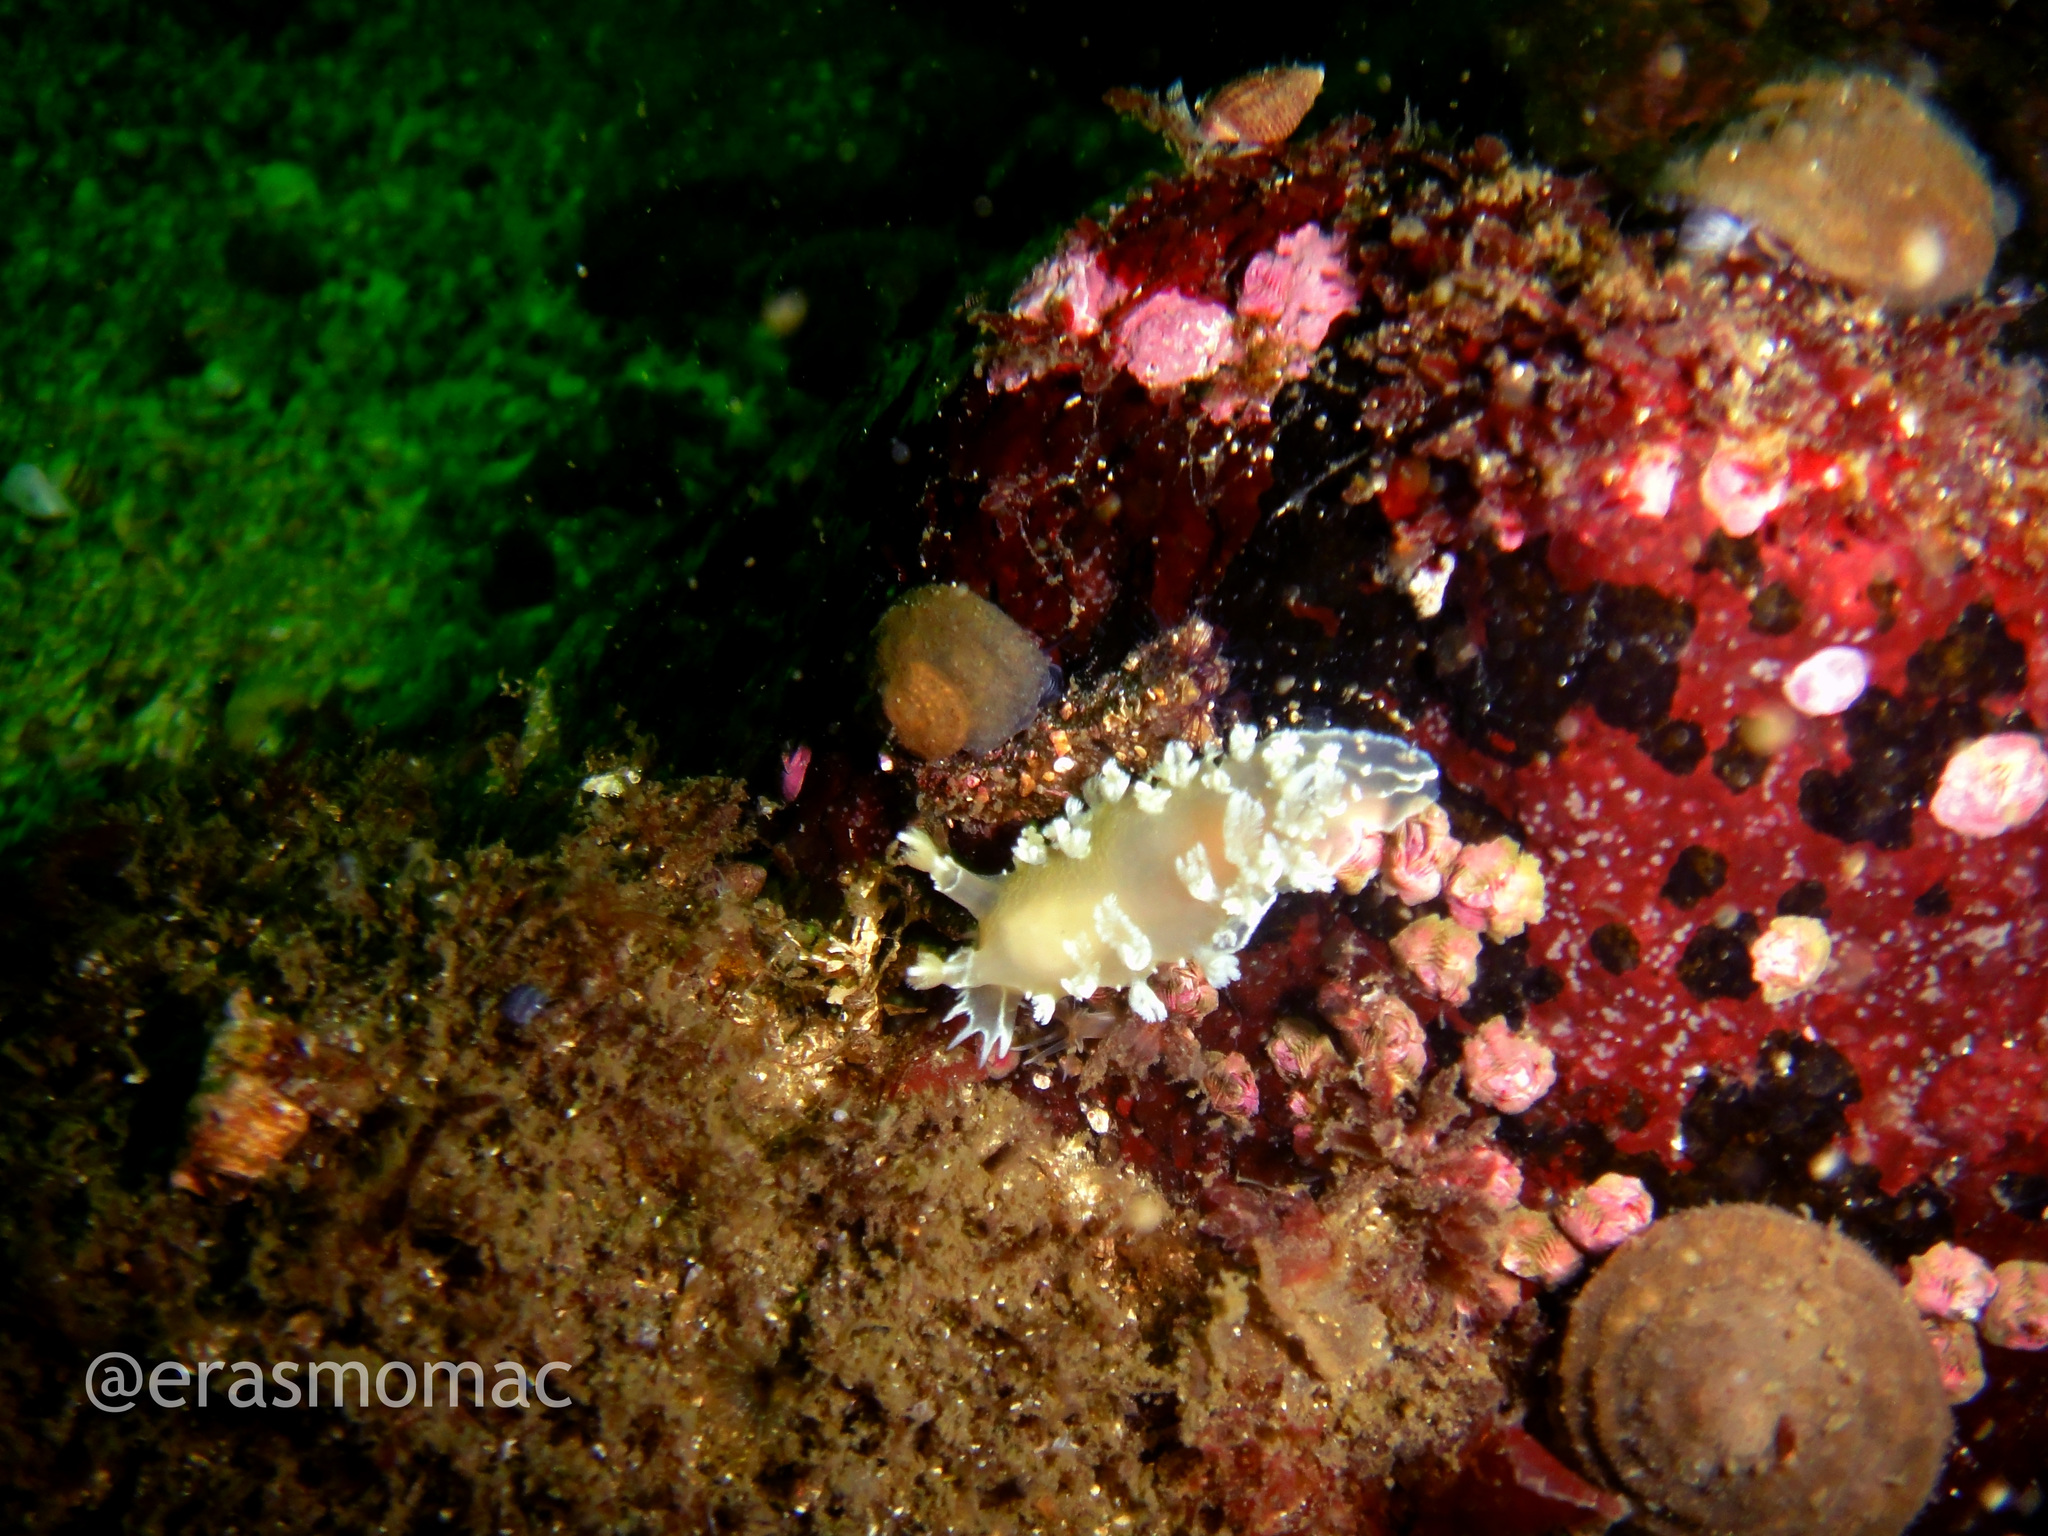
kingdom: Animalia
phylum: Mollusca
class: Gastropoda
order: Nudibranchia
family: Tritoniidae
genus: Tritonia
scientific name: Tritonia odhneri
